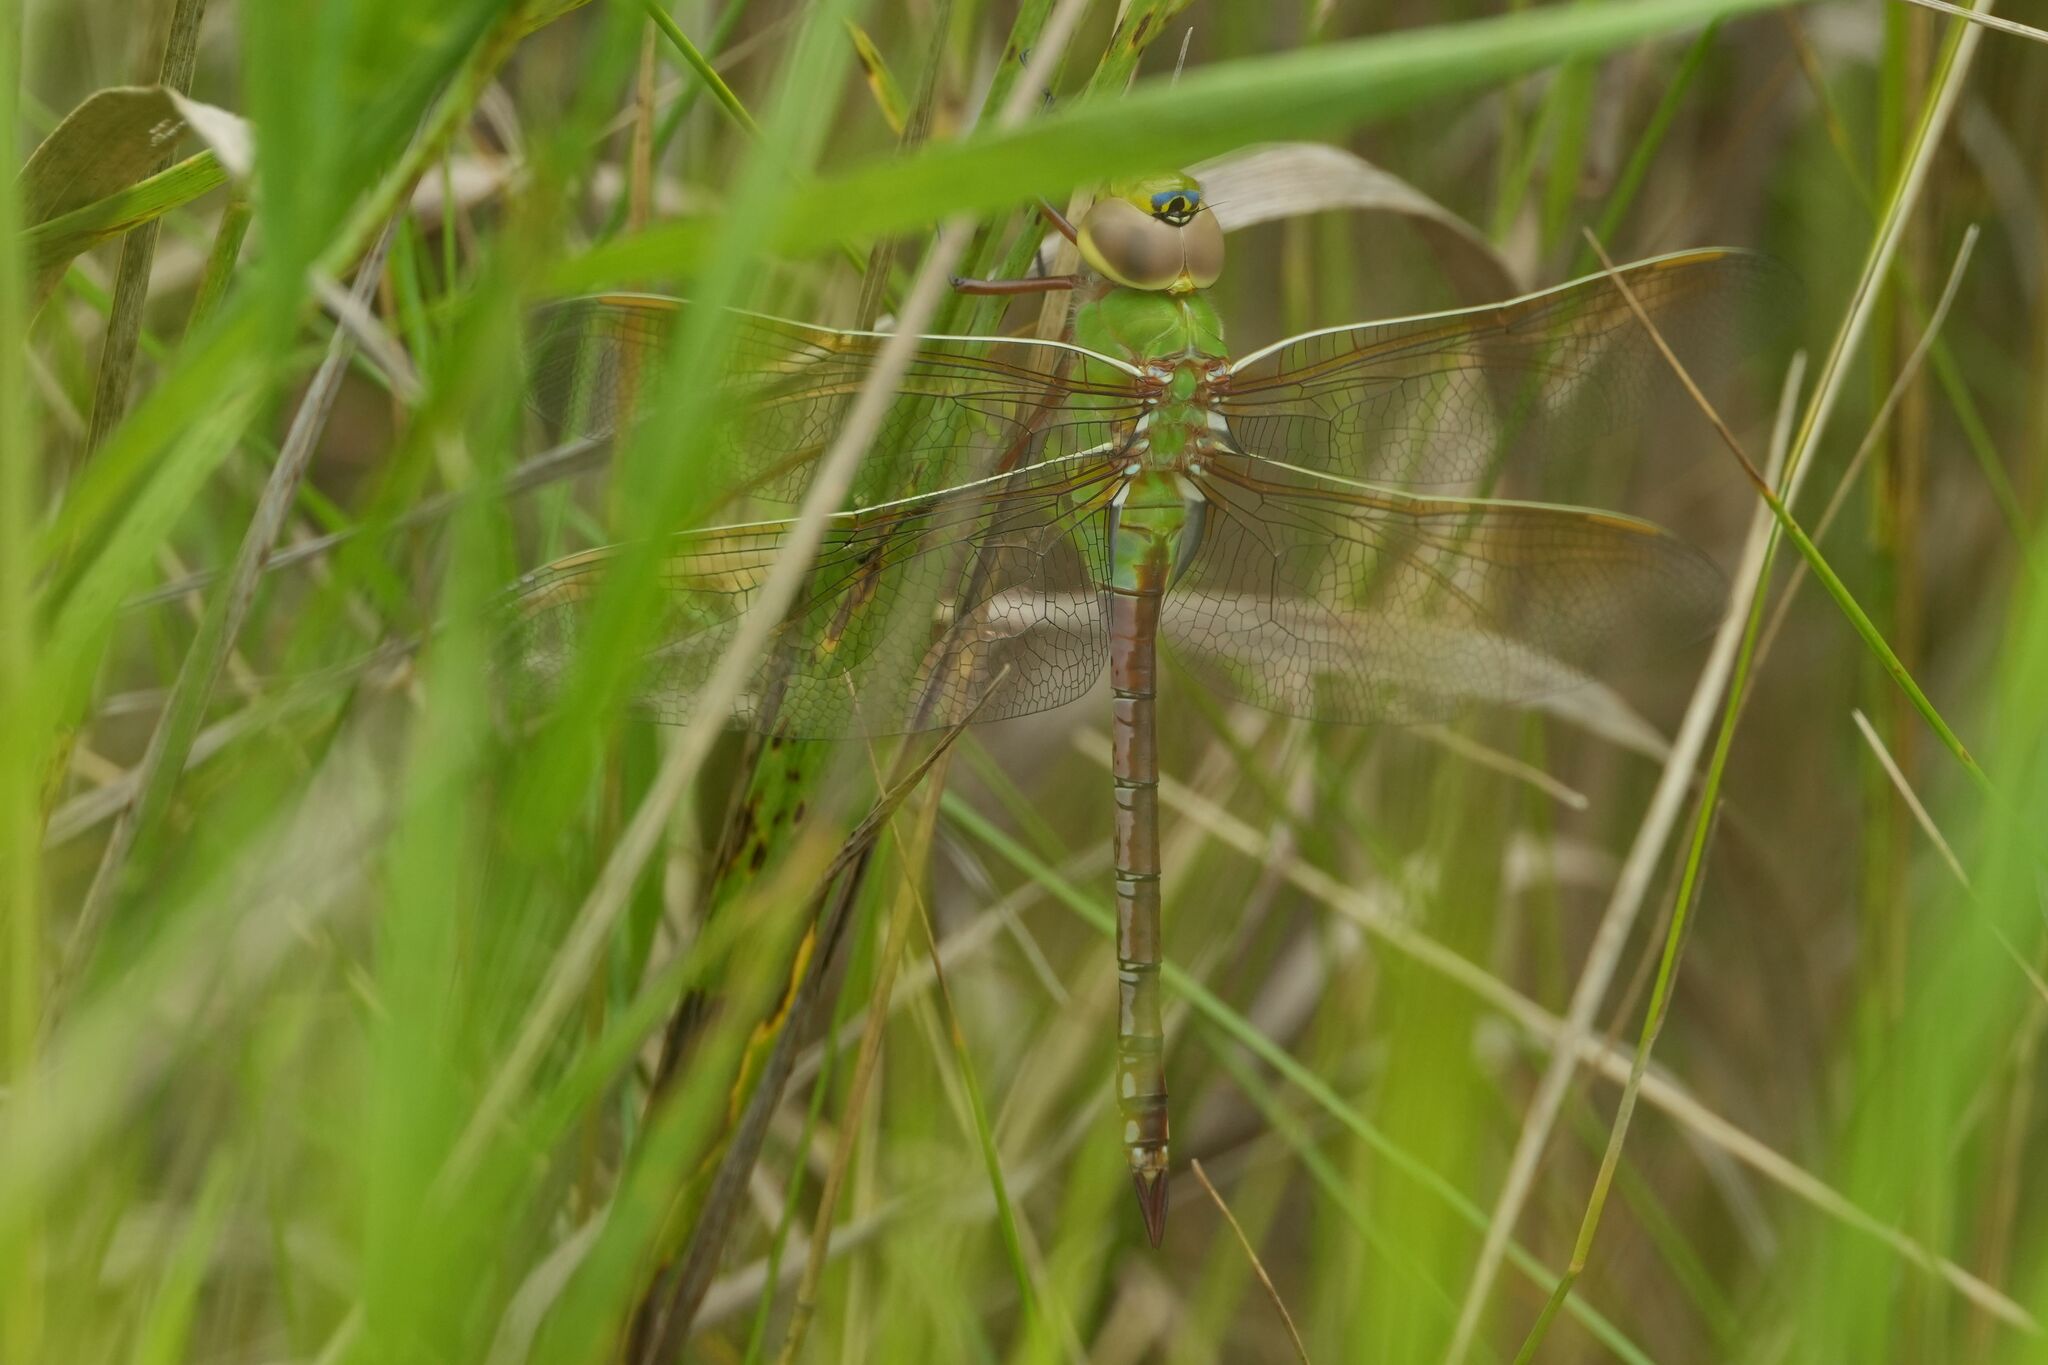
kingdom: Animalia
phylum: Arthropoda
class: Insecta
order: Odonata
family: Aeshnidae
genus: Anax
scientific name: Anax junius
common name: Common green darner
